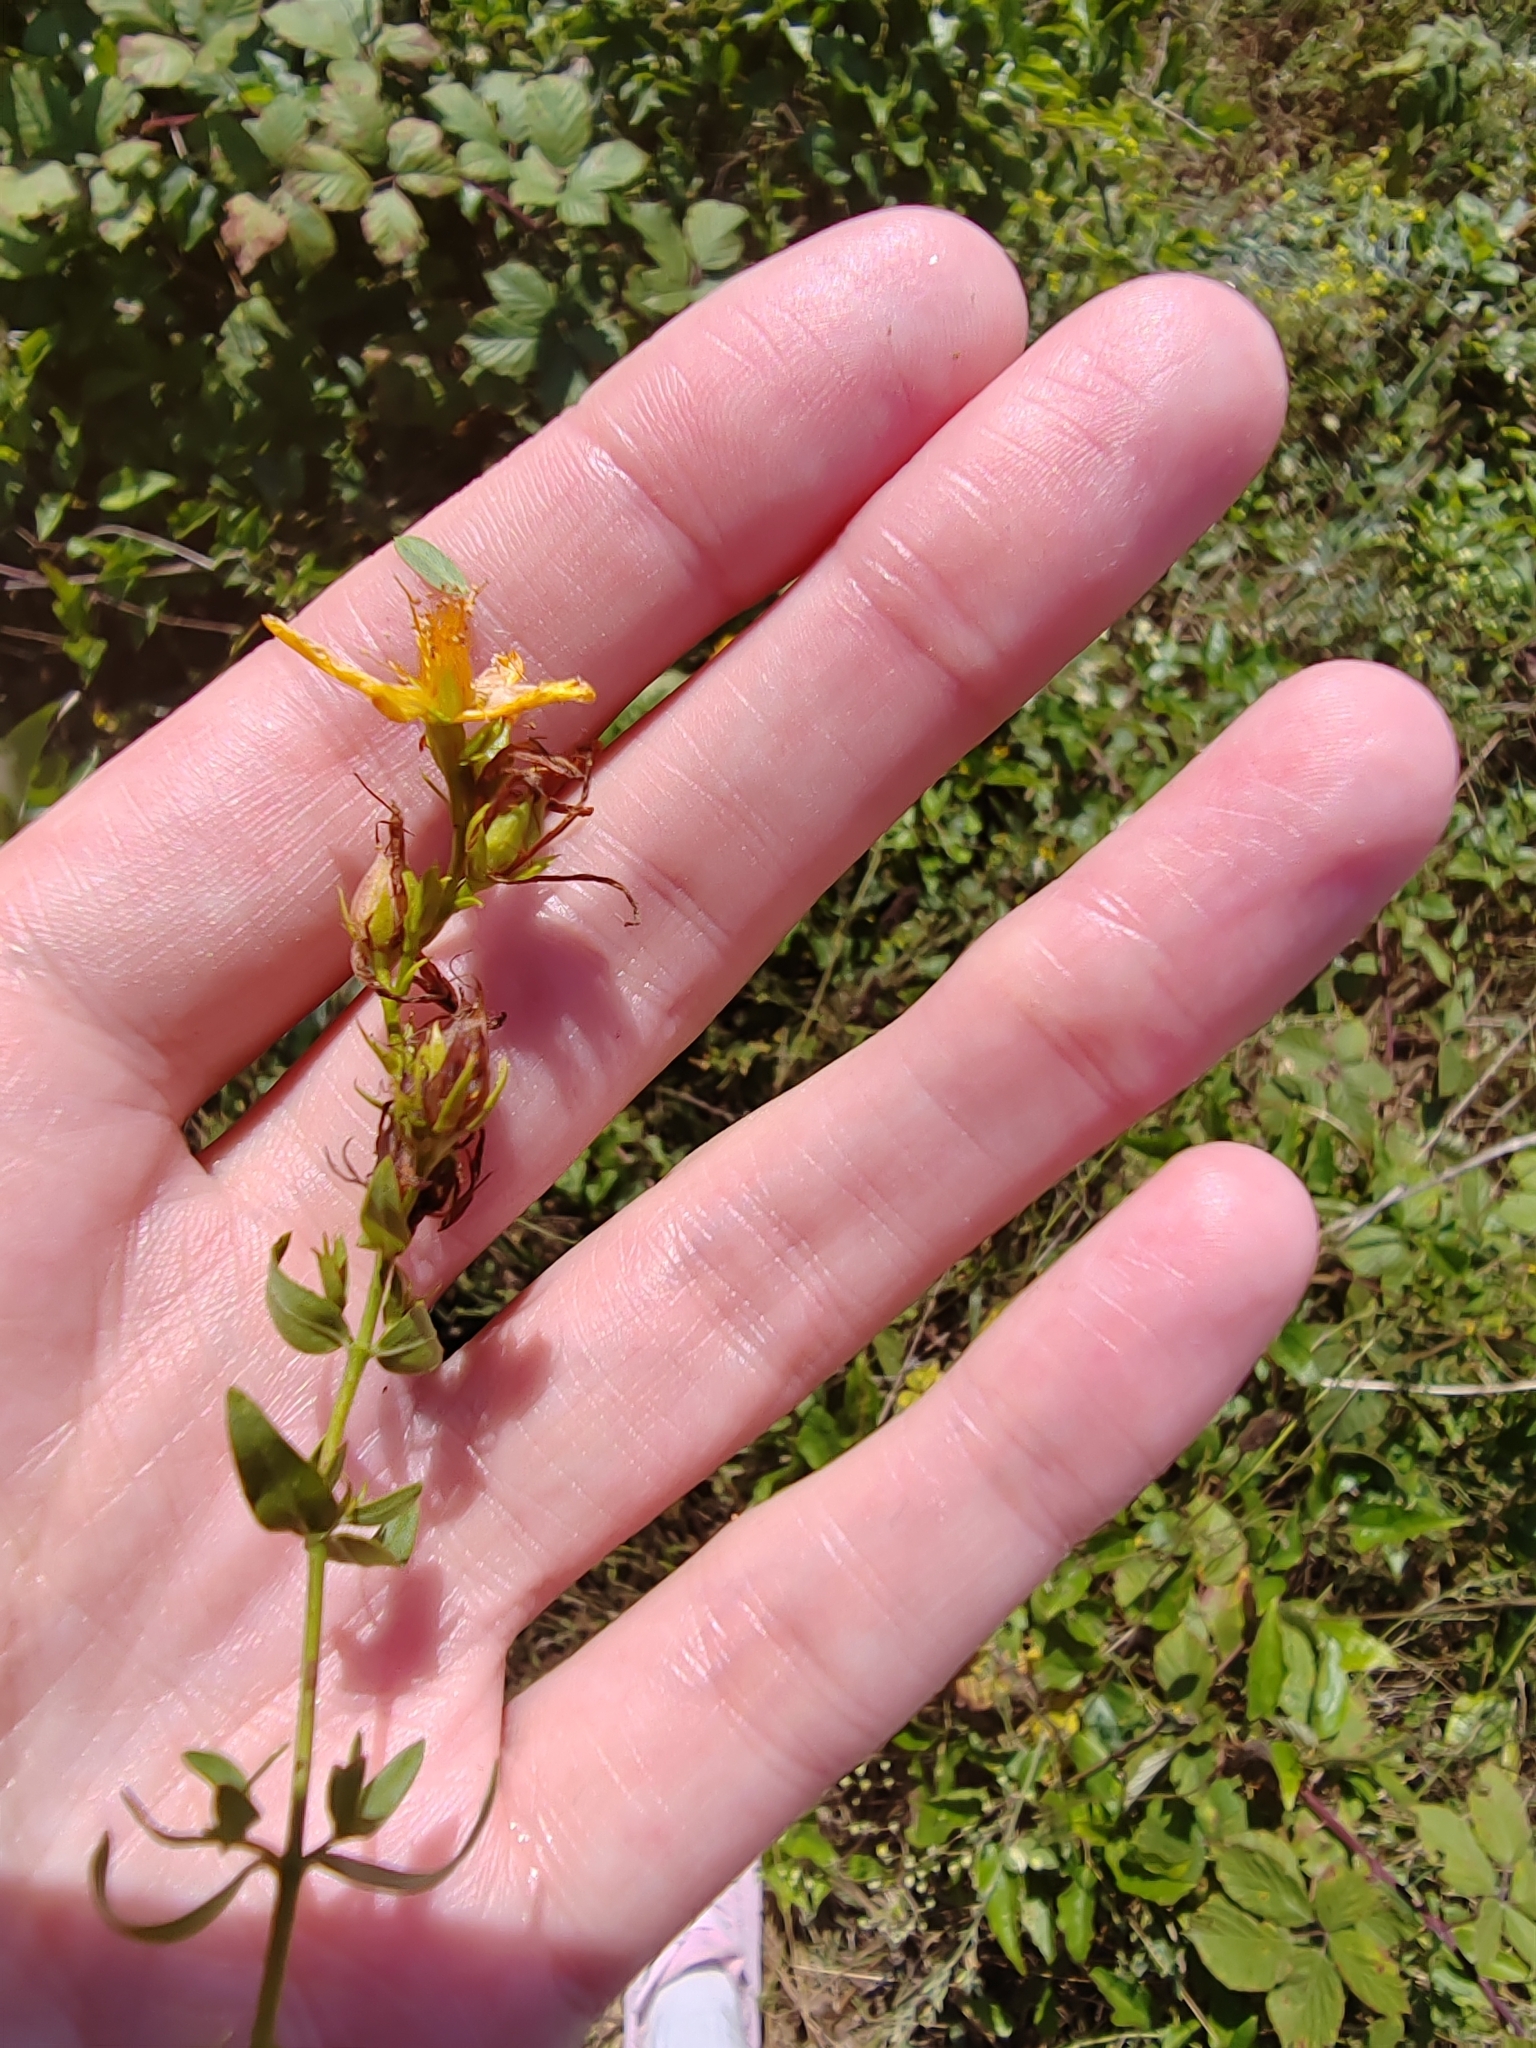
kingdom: Plantae
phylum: Tracheophyta
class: Magnoliopsida
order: Malpighiales
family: Hypericaceae
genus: Hypericum
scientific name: Hypericum perforatum
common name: Common st. johnswort
